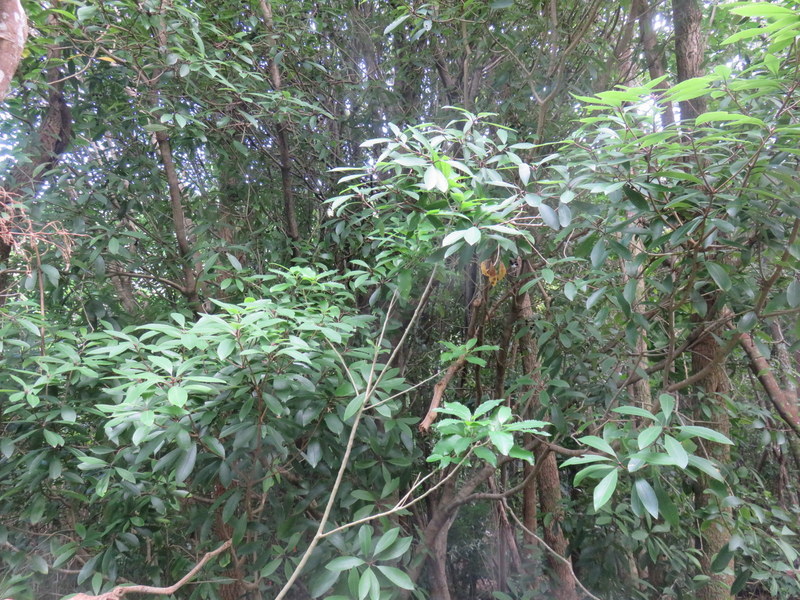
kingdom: Plantae
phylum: Tracheophyta
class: Magnoliopsida
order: Apiales
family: Pittosporaceae
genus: Pittosporum
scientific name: Pittosporum umbellatum
